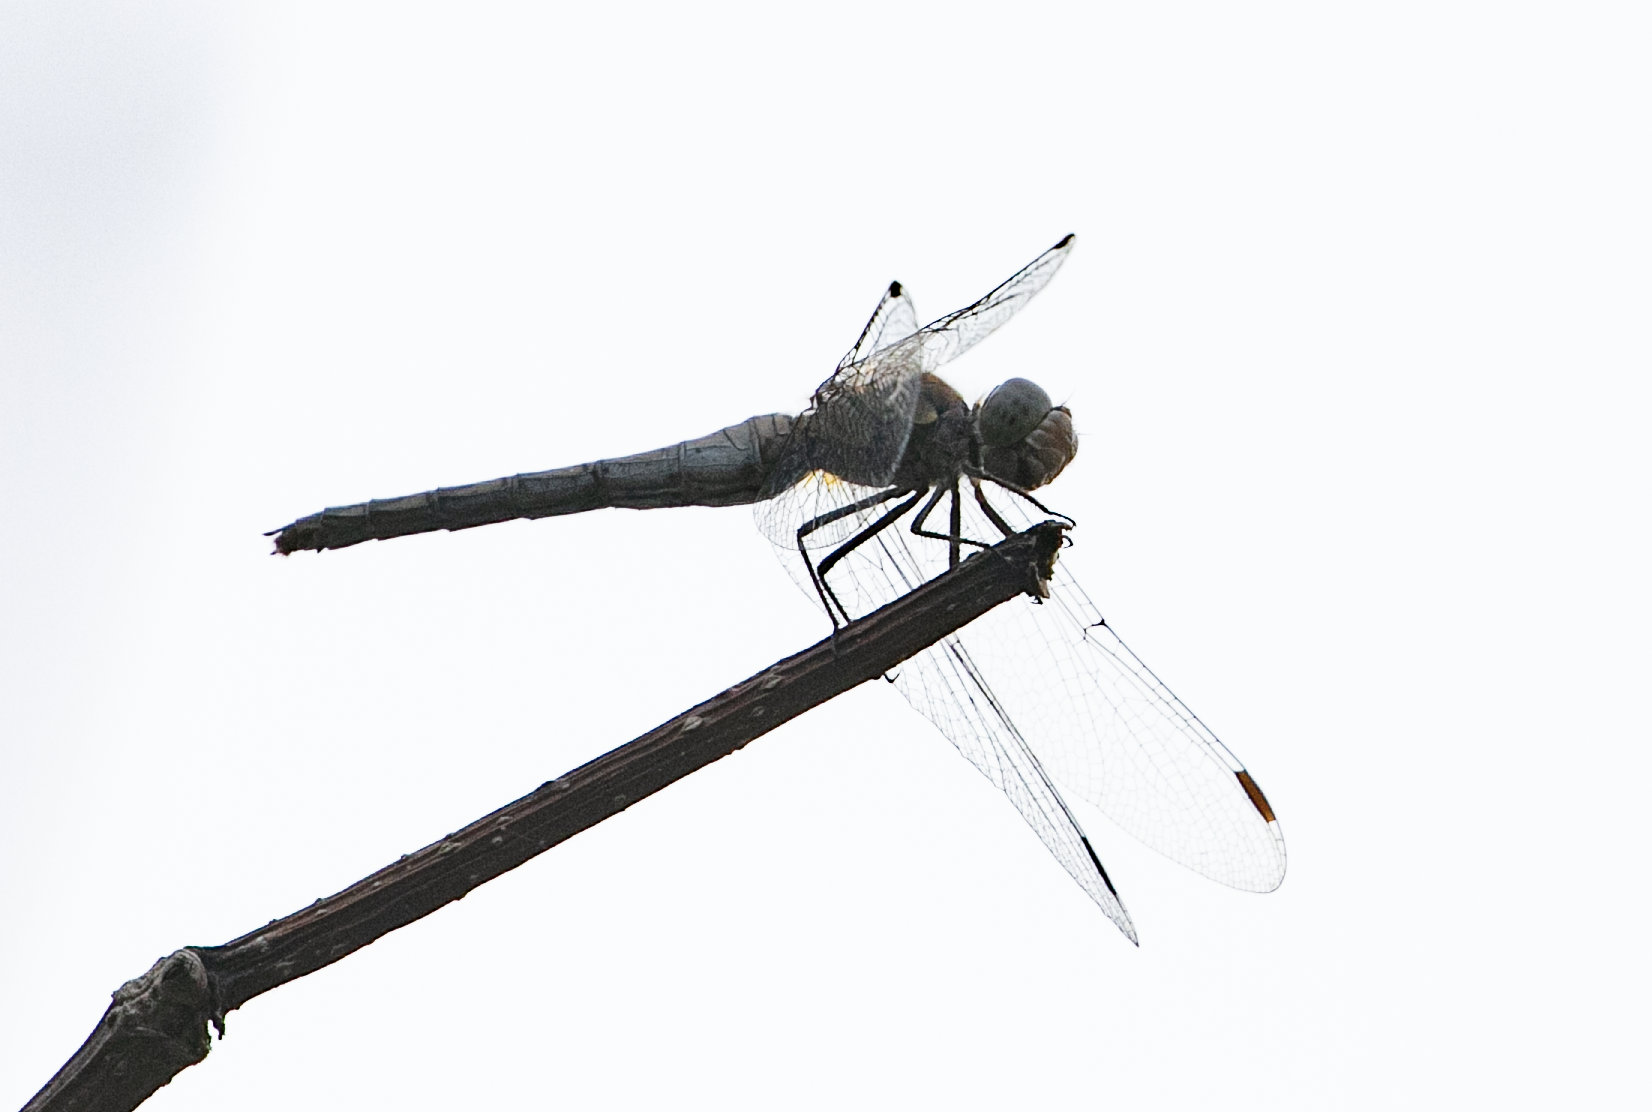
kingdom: Animalia
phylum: Arthropoda
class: Insecta
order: Odonata
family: Libellulidae
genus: Sympetrum
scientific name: Sympetrum striolatum
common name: Common darter
